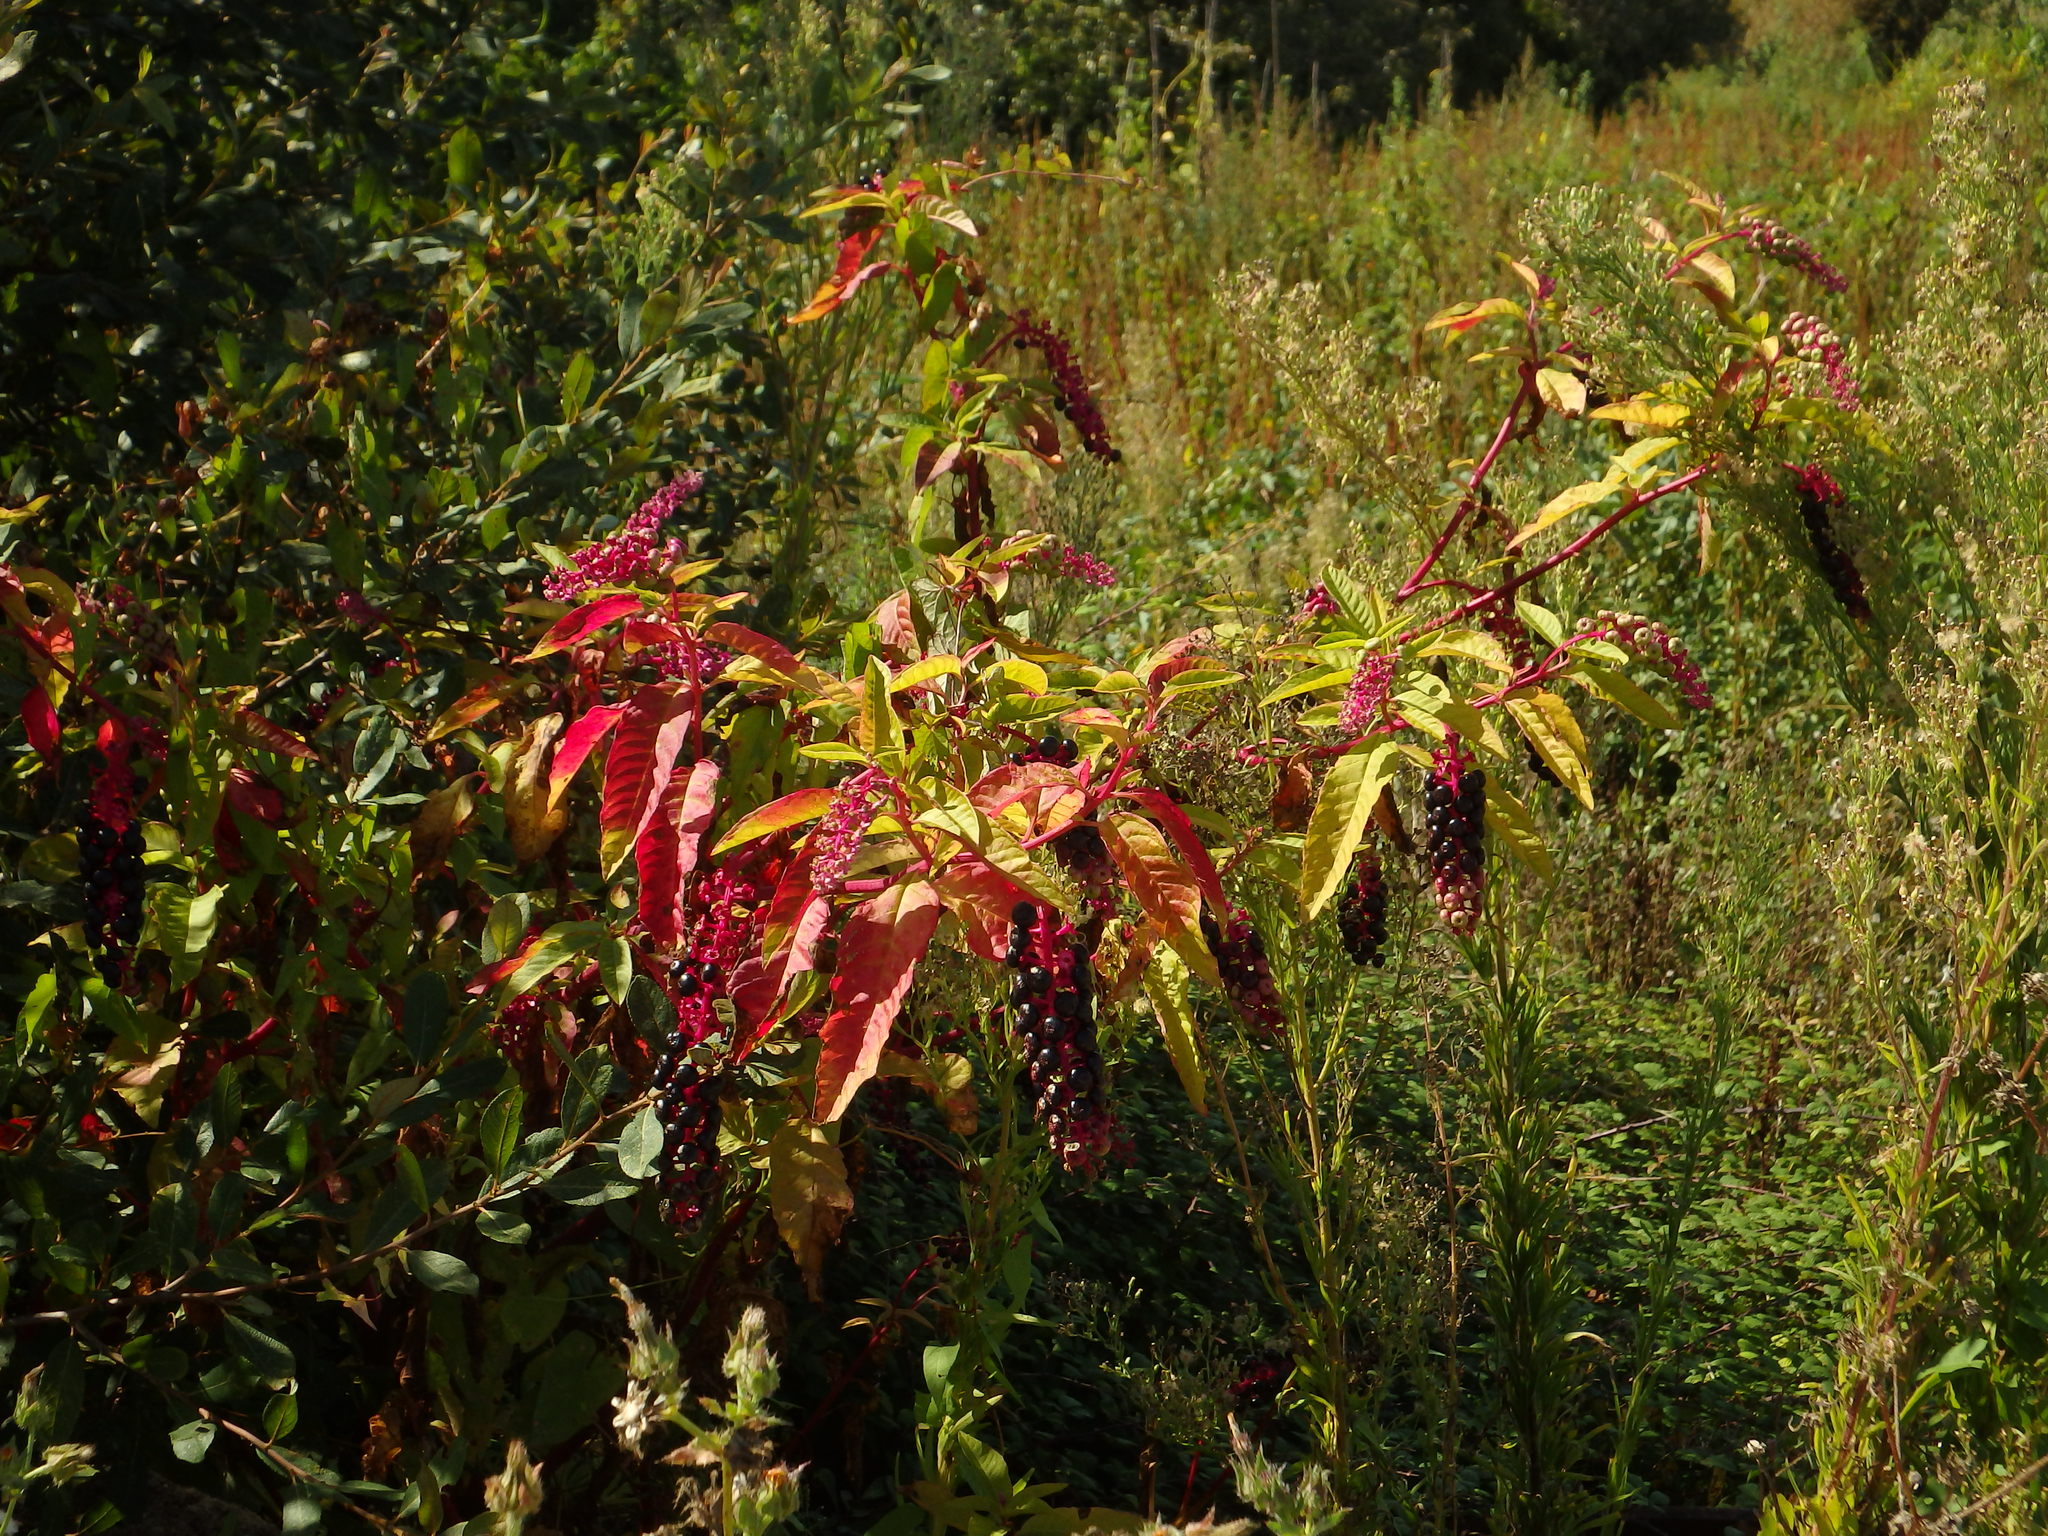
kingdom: Plantae
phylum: Tracheophyta
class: Magnoliopsida
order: Caryophyllales
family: Phytolaccaceae
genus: Phytolacca
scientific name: Phytolacca americana
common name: American pokeweed
